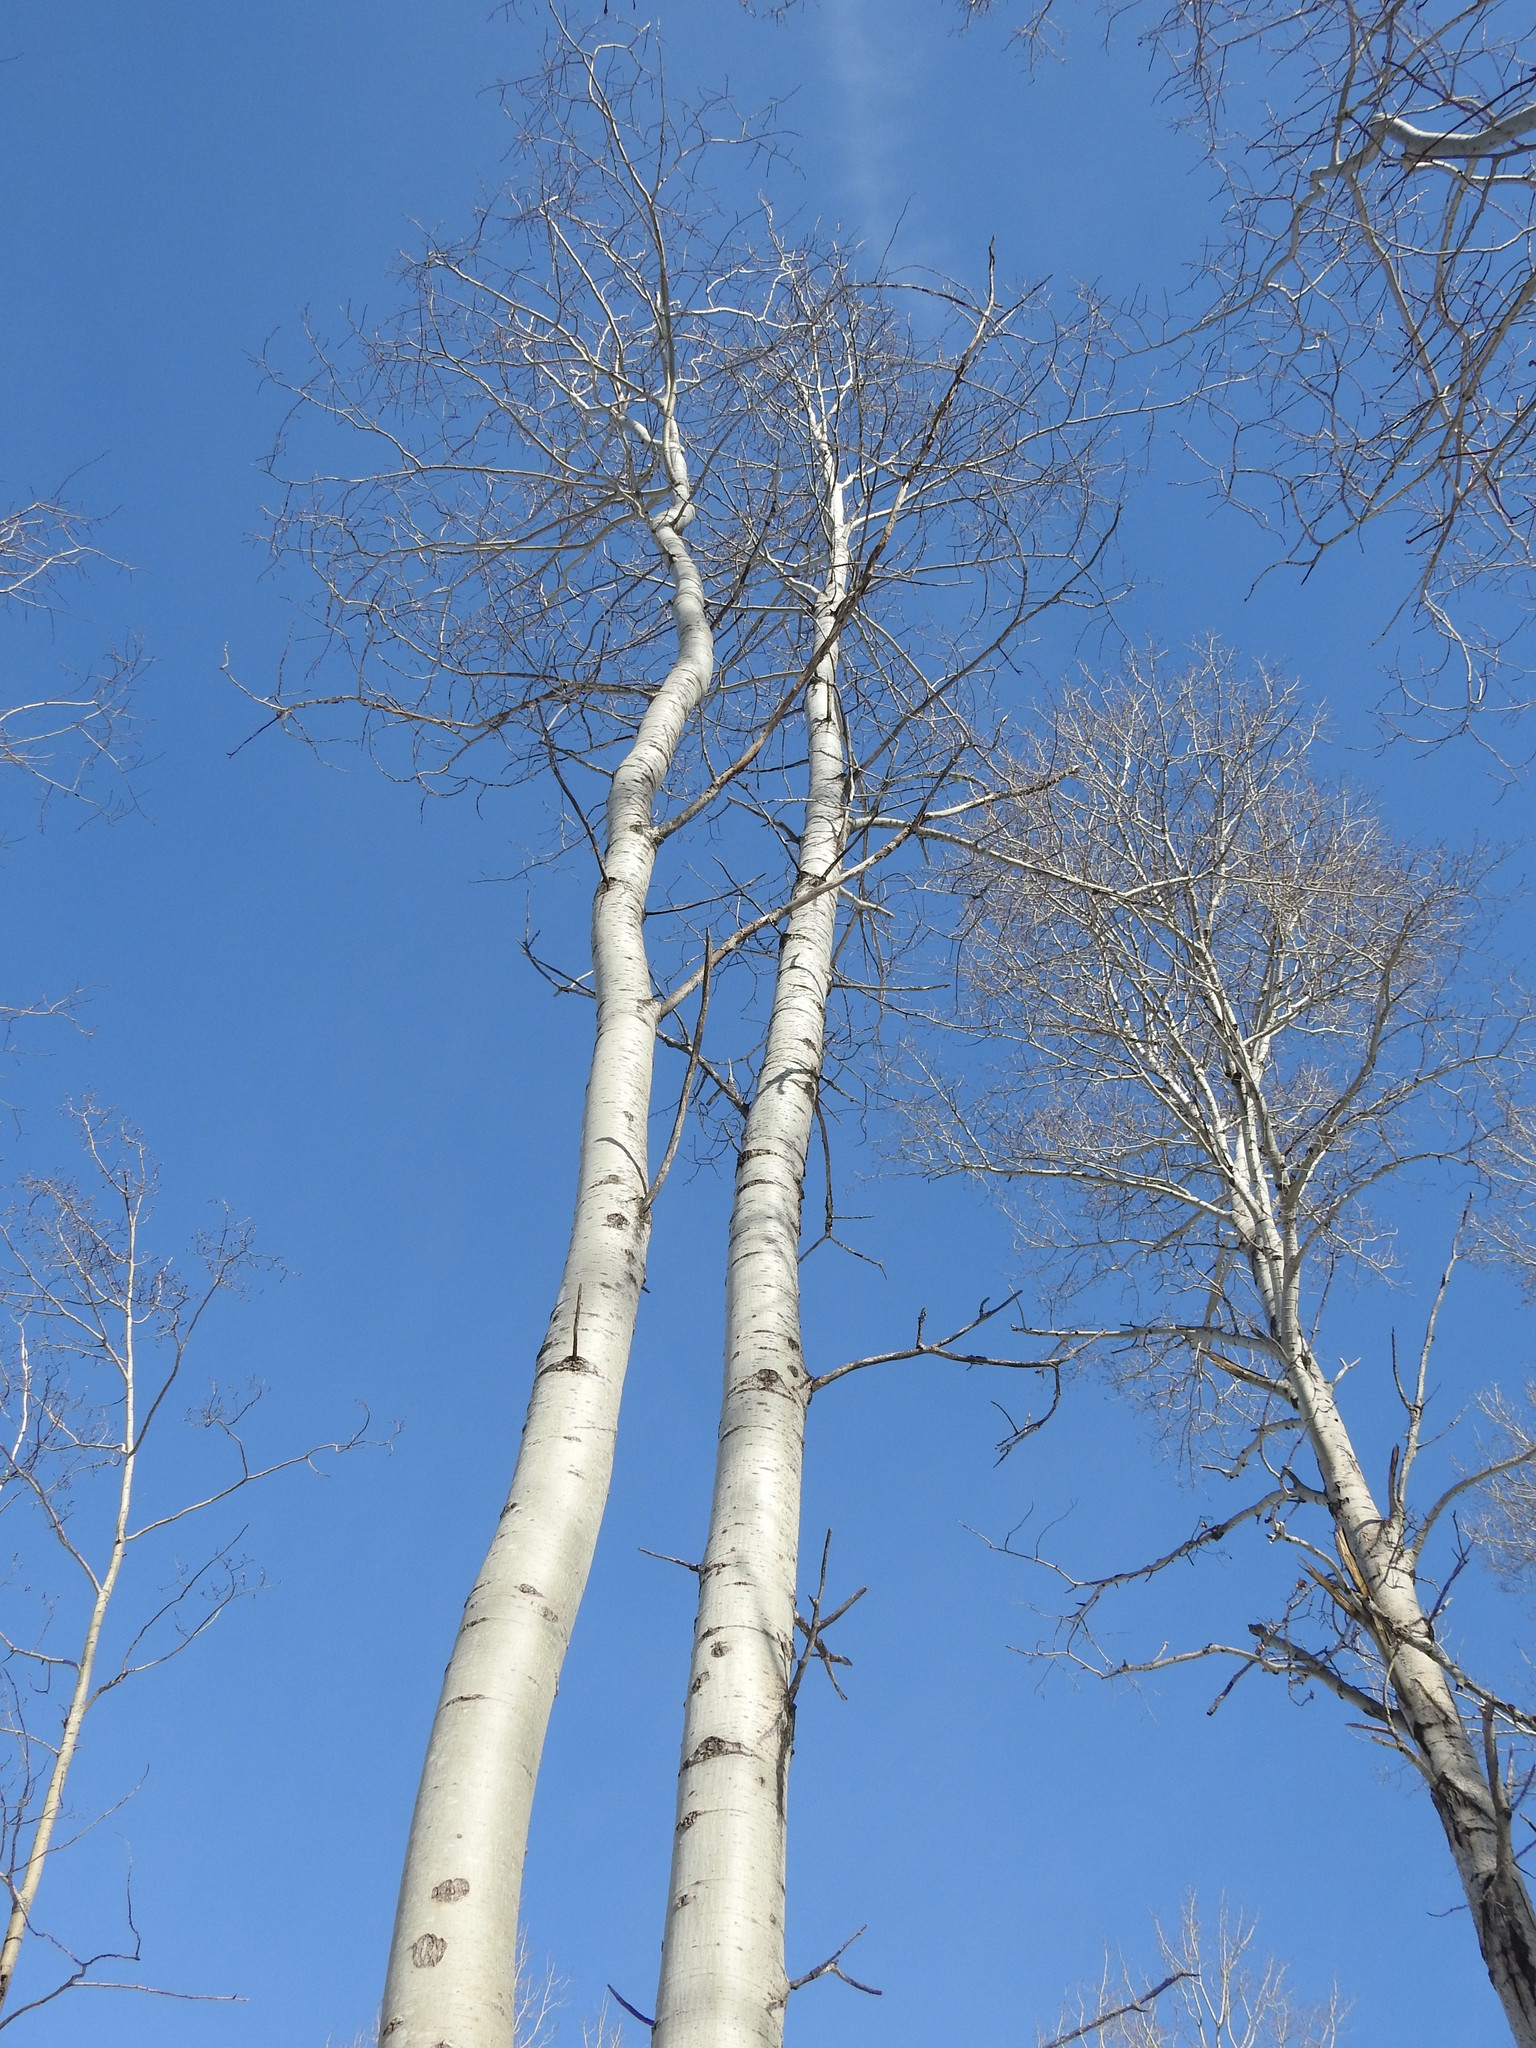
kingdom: Plantae
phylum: Tracheophyta
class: Magnoliopsida
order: Malpighiales
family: Salicaceae
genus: Populus
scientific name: Populus tremuloides
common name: Quaking aspen
